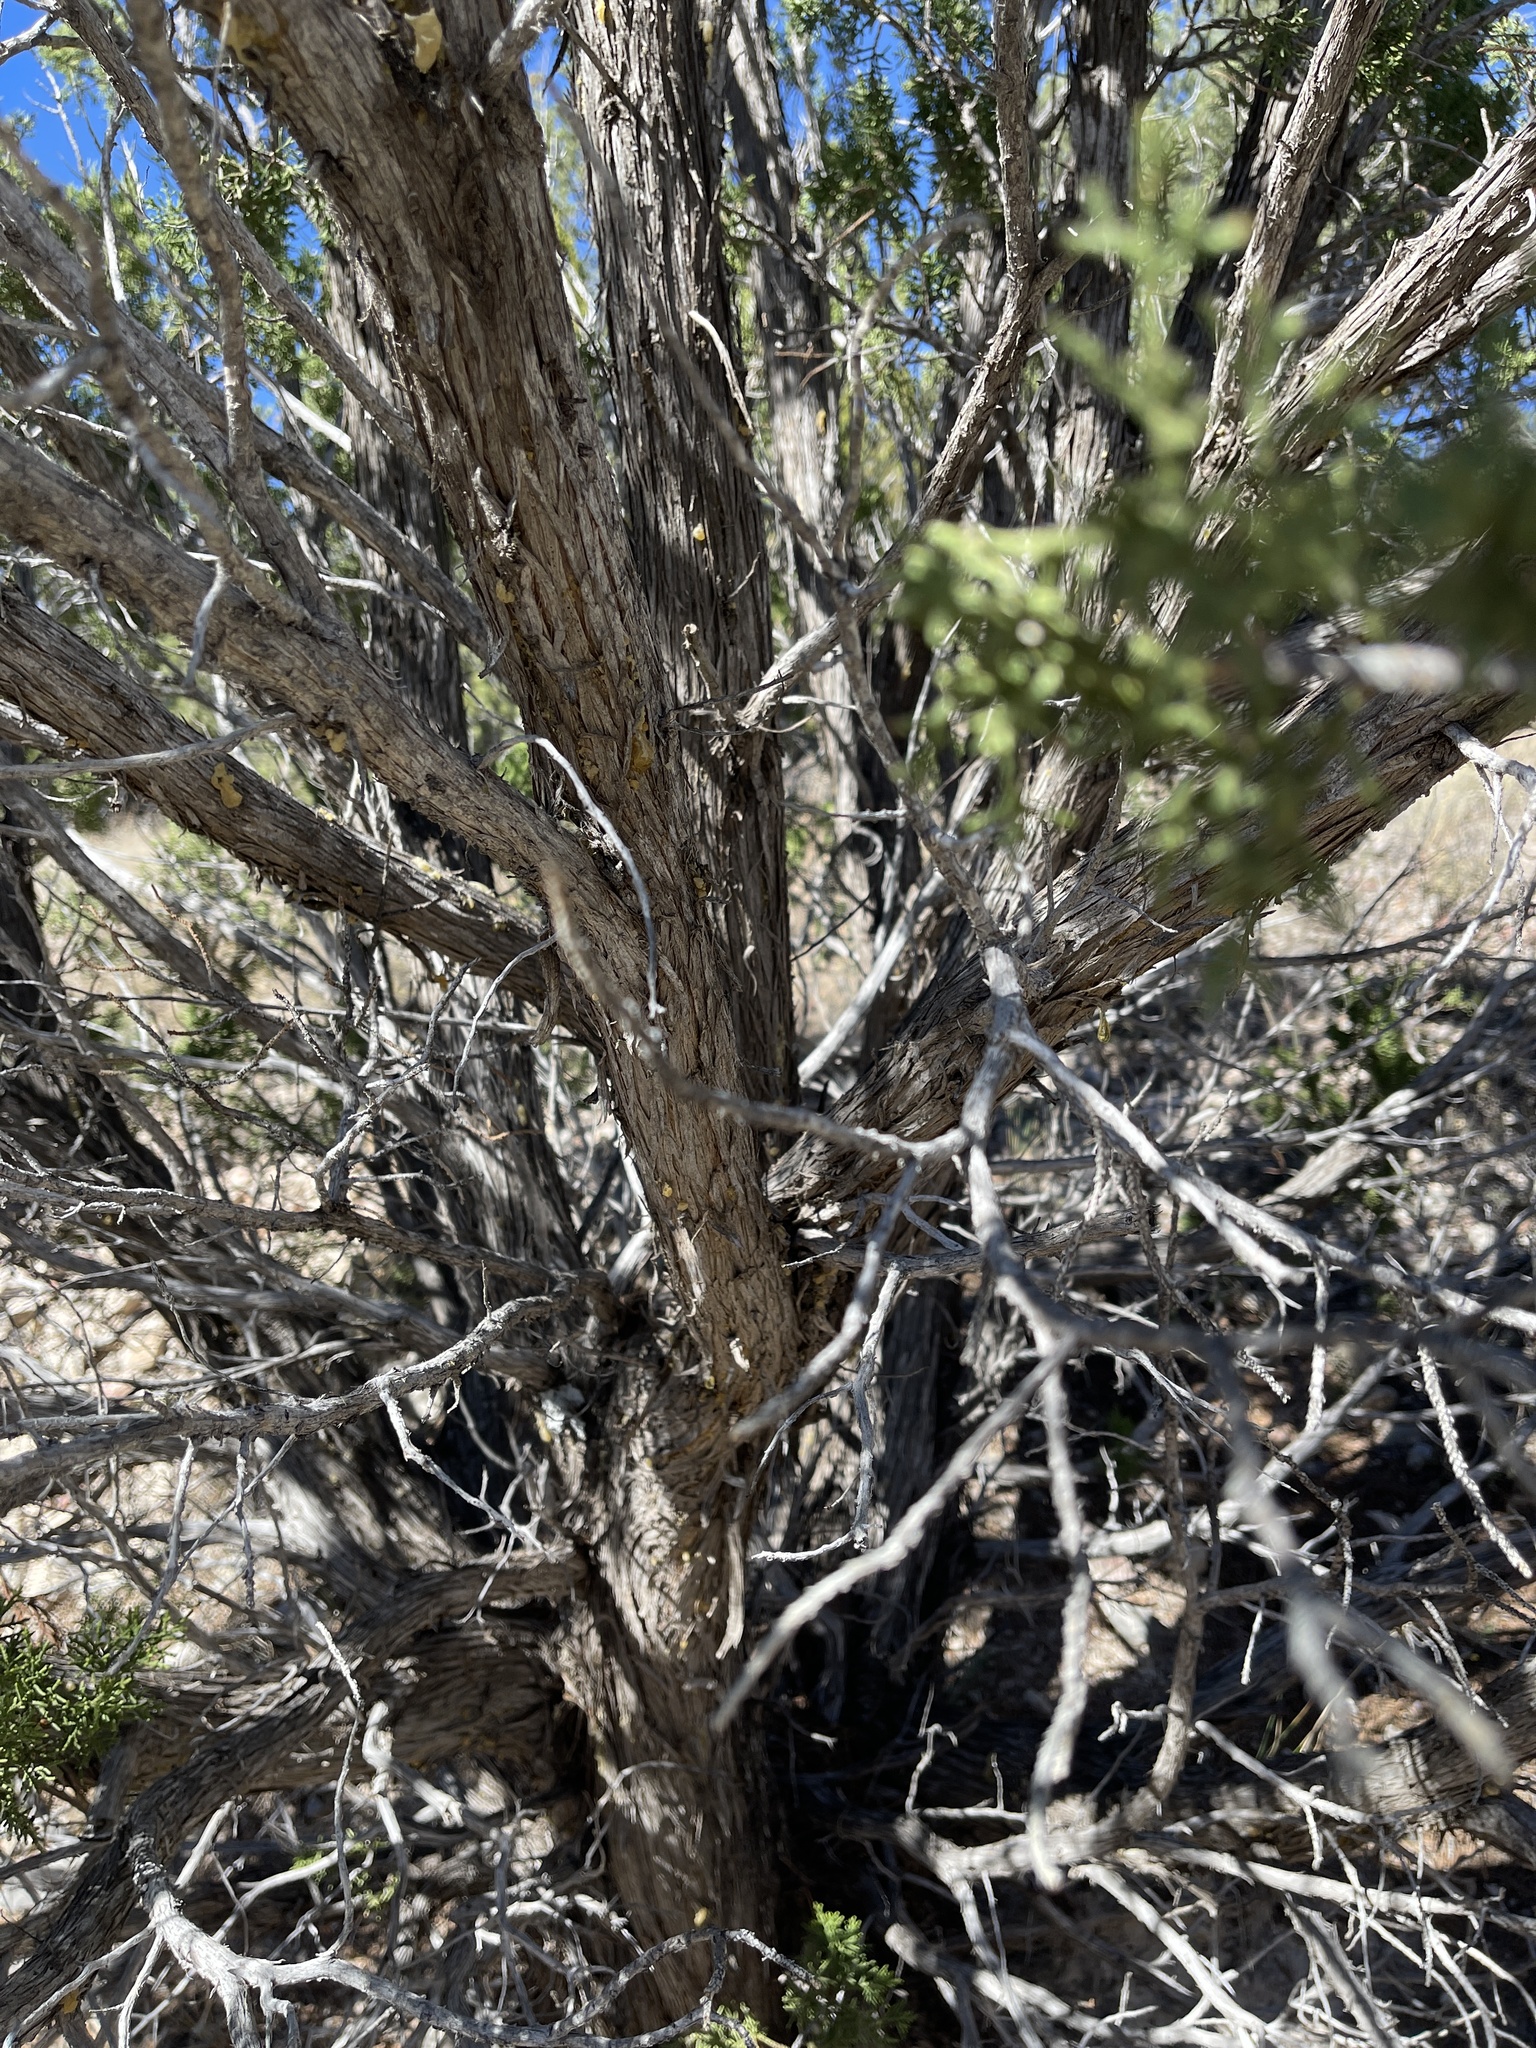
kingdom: Plantae
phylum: Tracheophyta
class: Pinopsida
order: Pinales
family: Cupressaceae
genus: Juniperus
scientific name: Juniperus monosperma
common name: One-seed juniper
